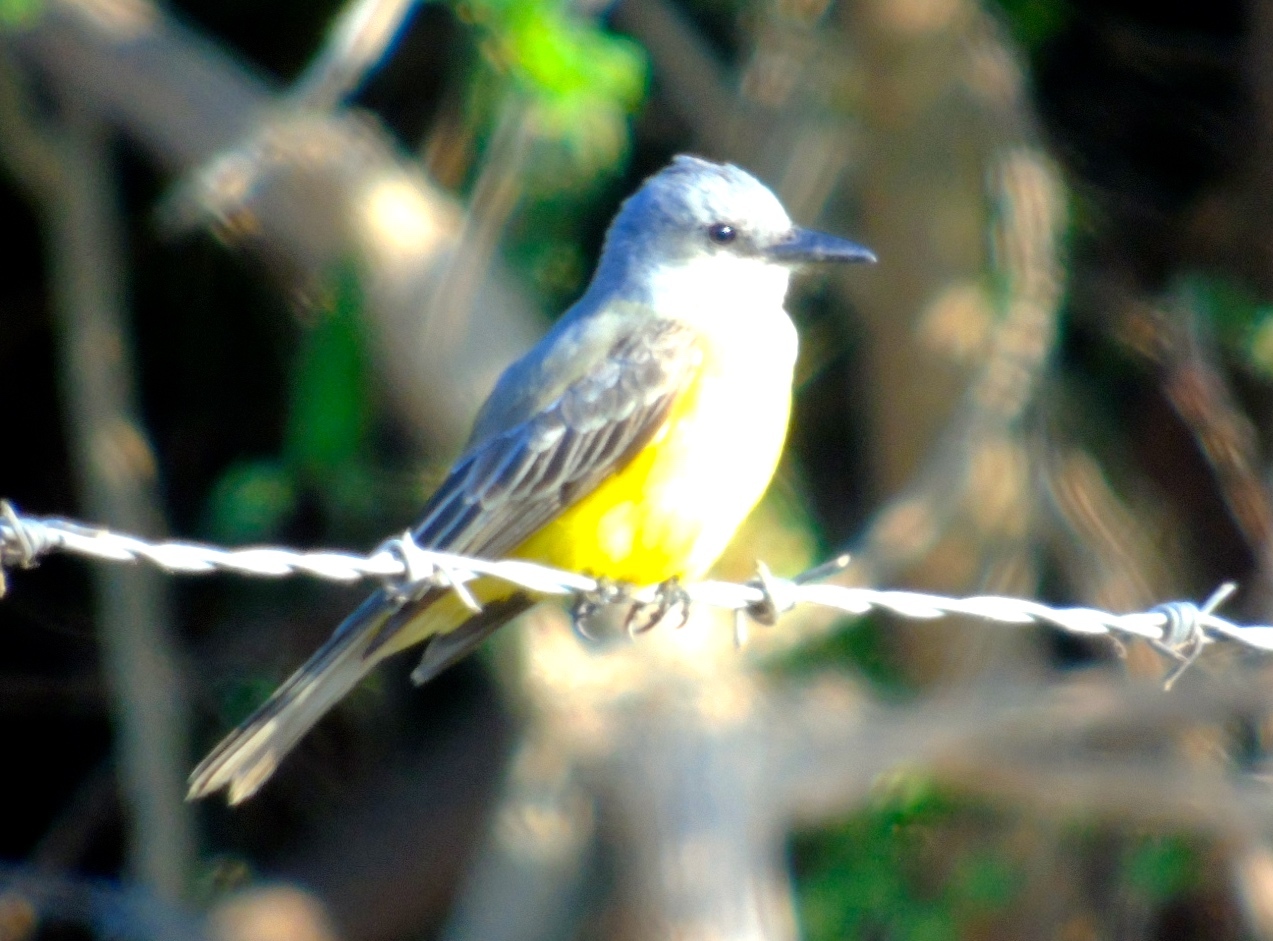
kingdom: Animalia
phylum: Chordata
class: Aves
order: Passeriformes
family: Tyrannidae
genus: Tyrannus
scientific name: Tyrannus melancholicus
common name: Tropical kingbird
